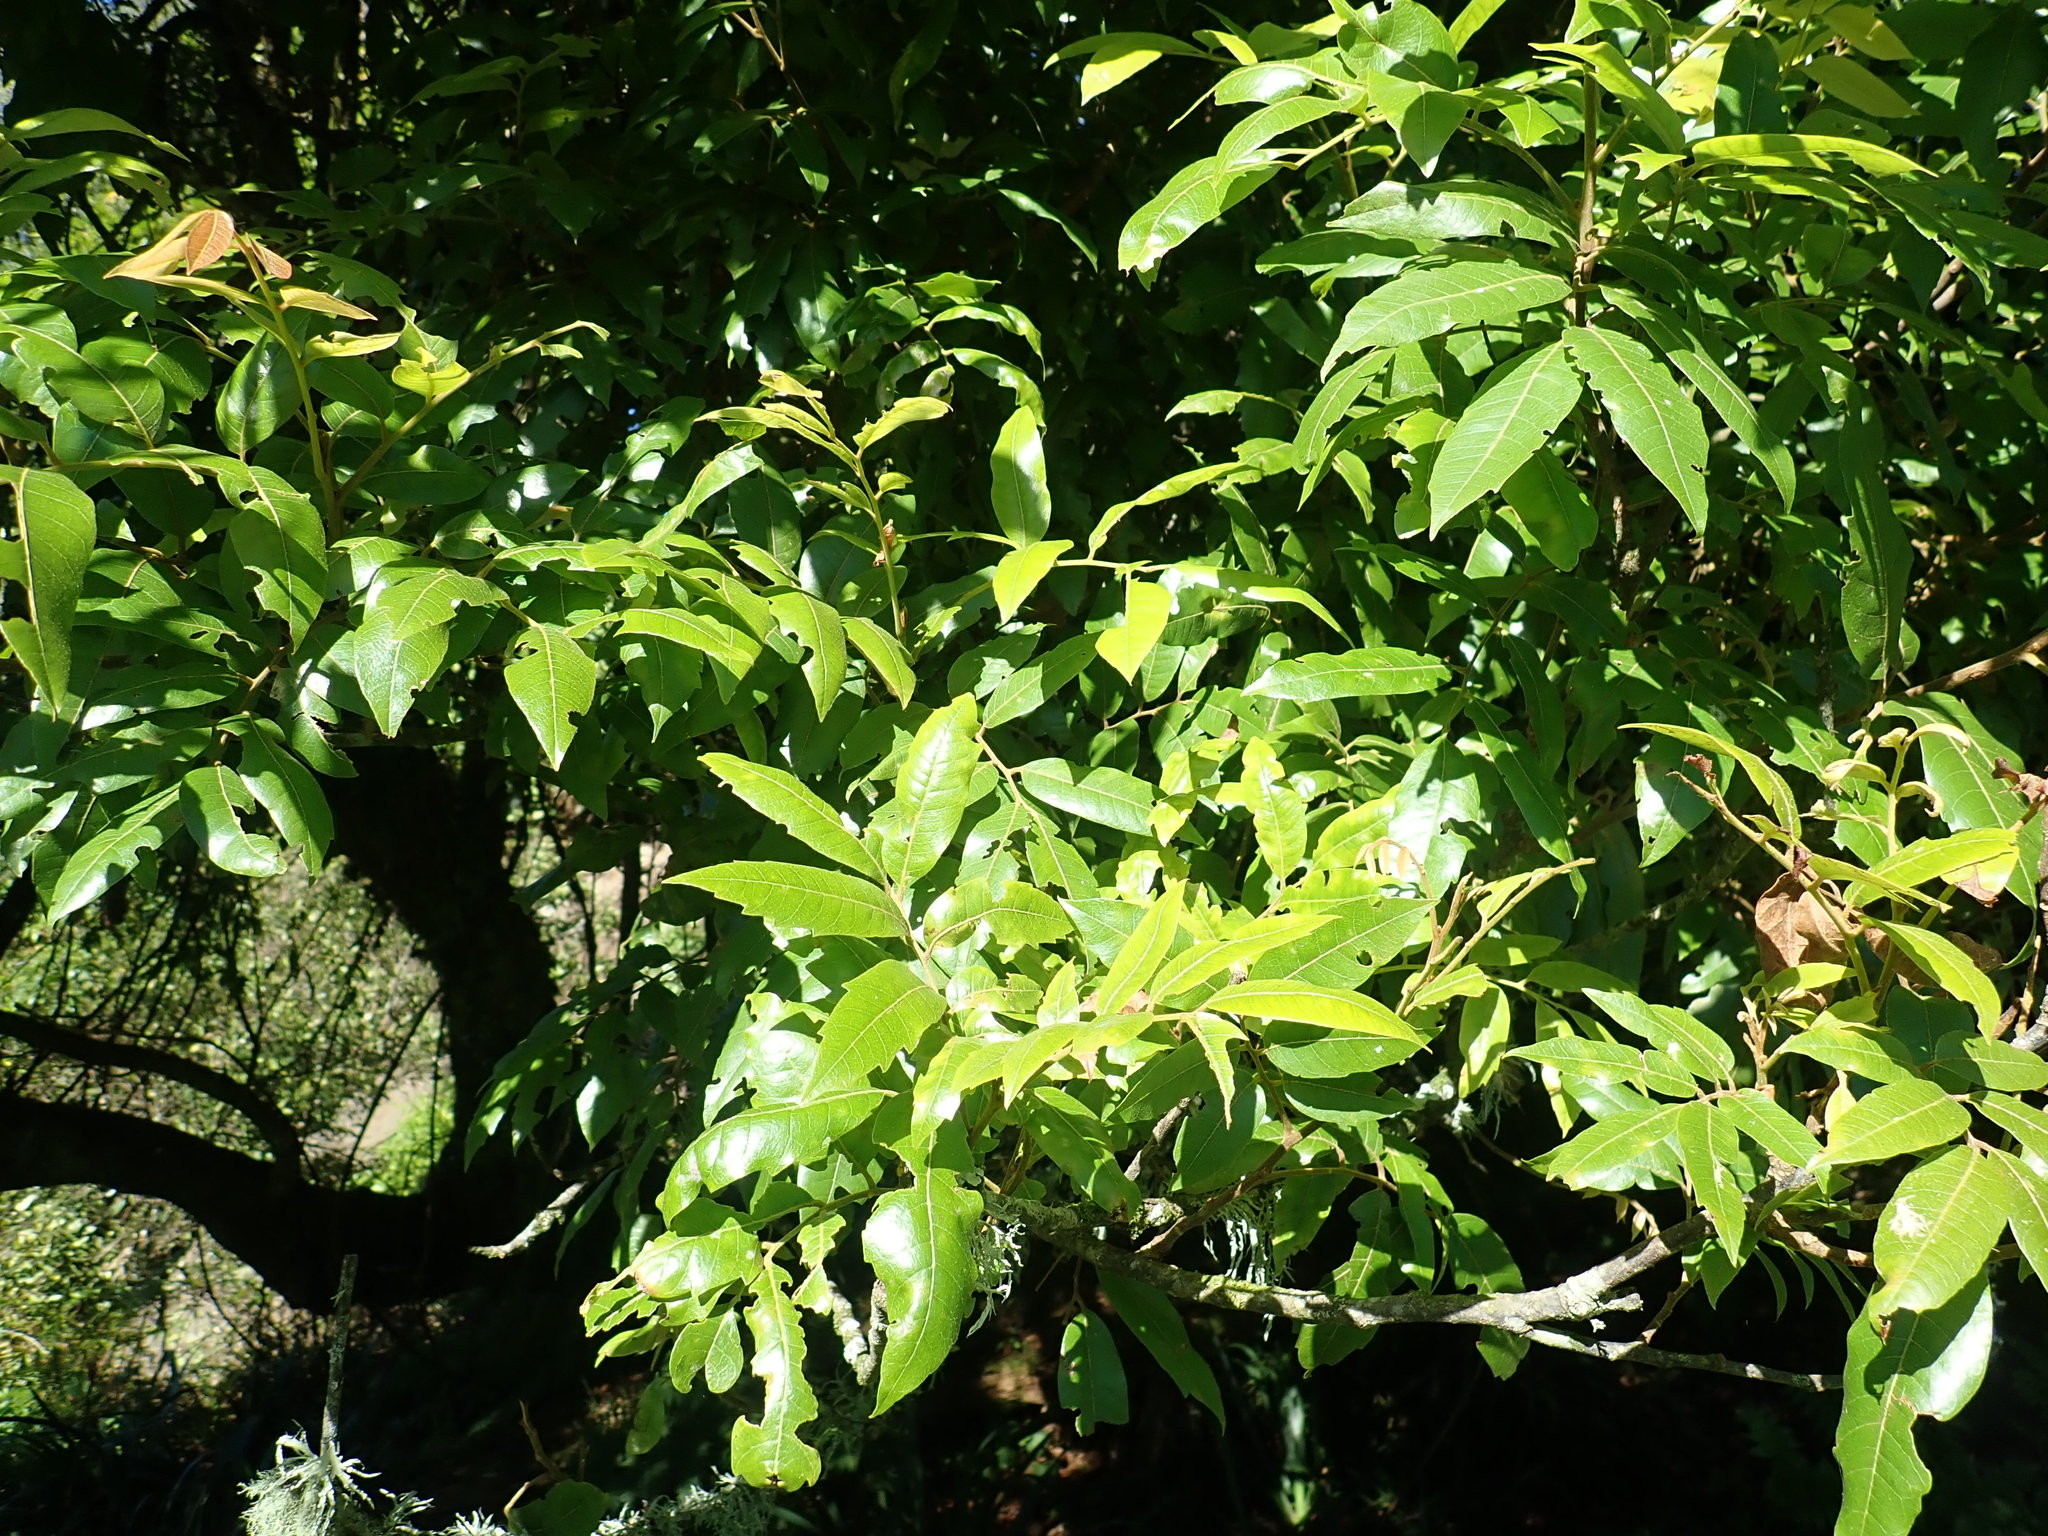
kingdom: Plantae
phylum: Tracheophyta
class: Magnoliopsida
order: Sapindales
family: Sapindaceae
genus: Alectryon
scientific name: Alectryon excelsus
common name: Three kings titoki
